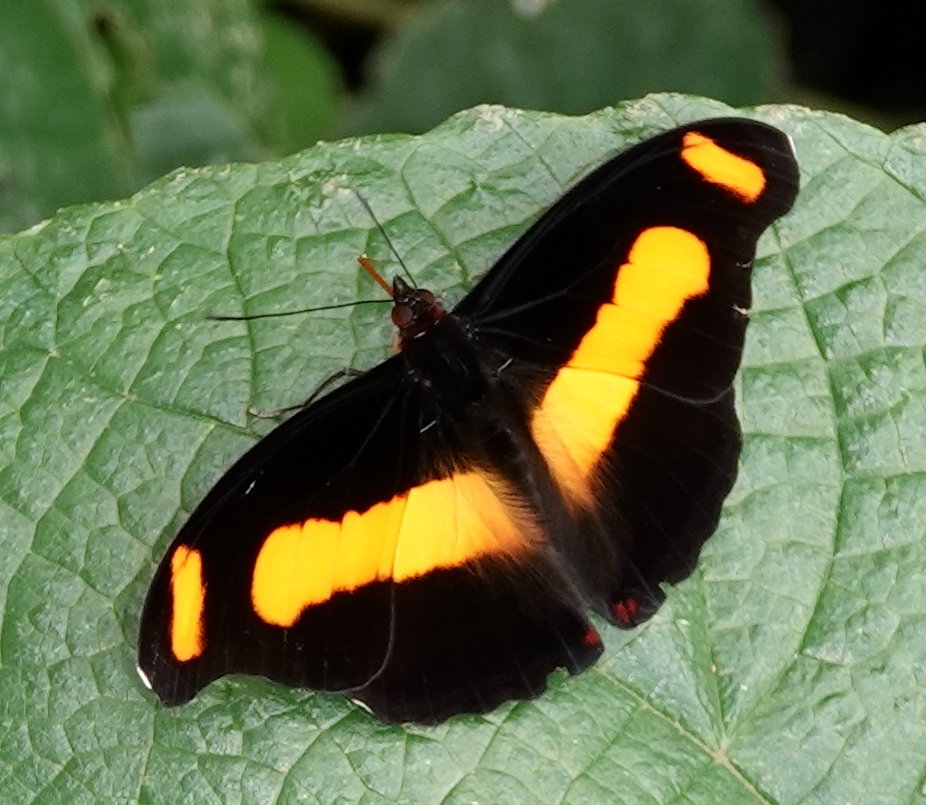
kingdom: Animalia
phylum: Arthropoda
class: Insecta
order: Lepidoptera
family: Nymphalidae
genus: Catonephele
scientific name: Catonephele chromis
